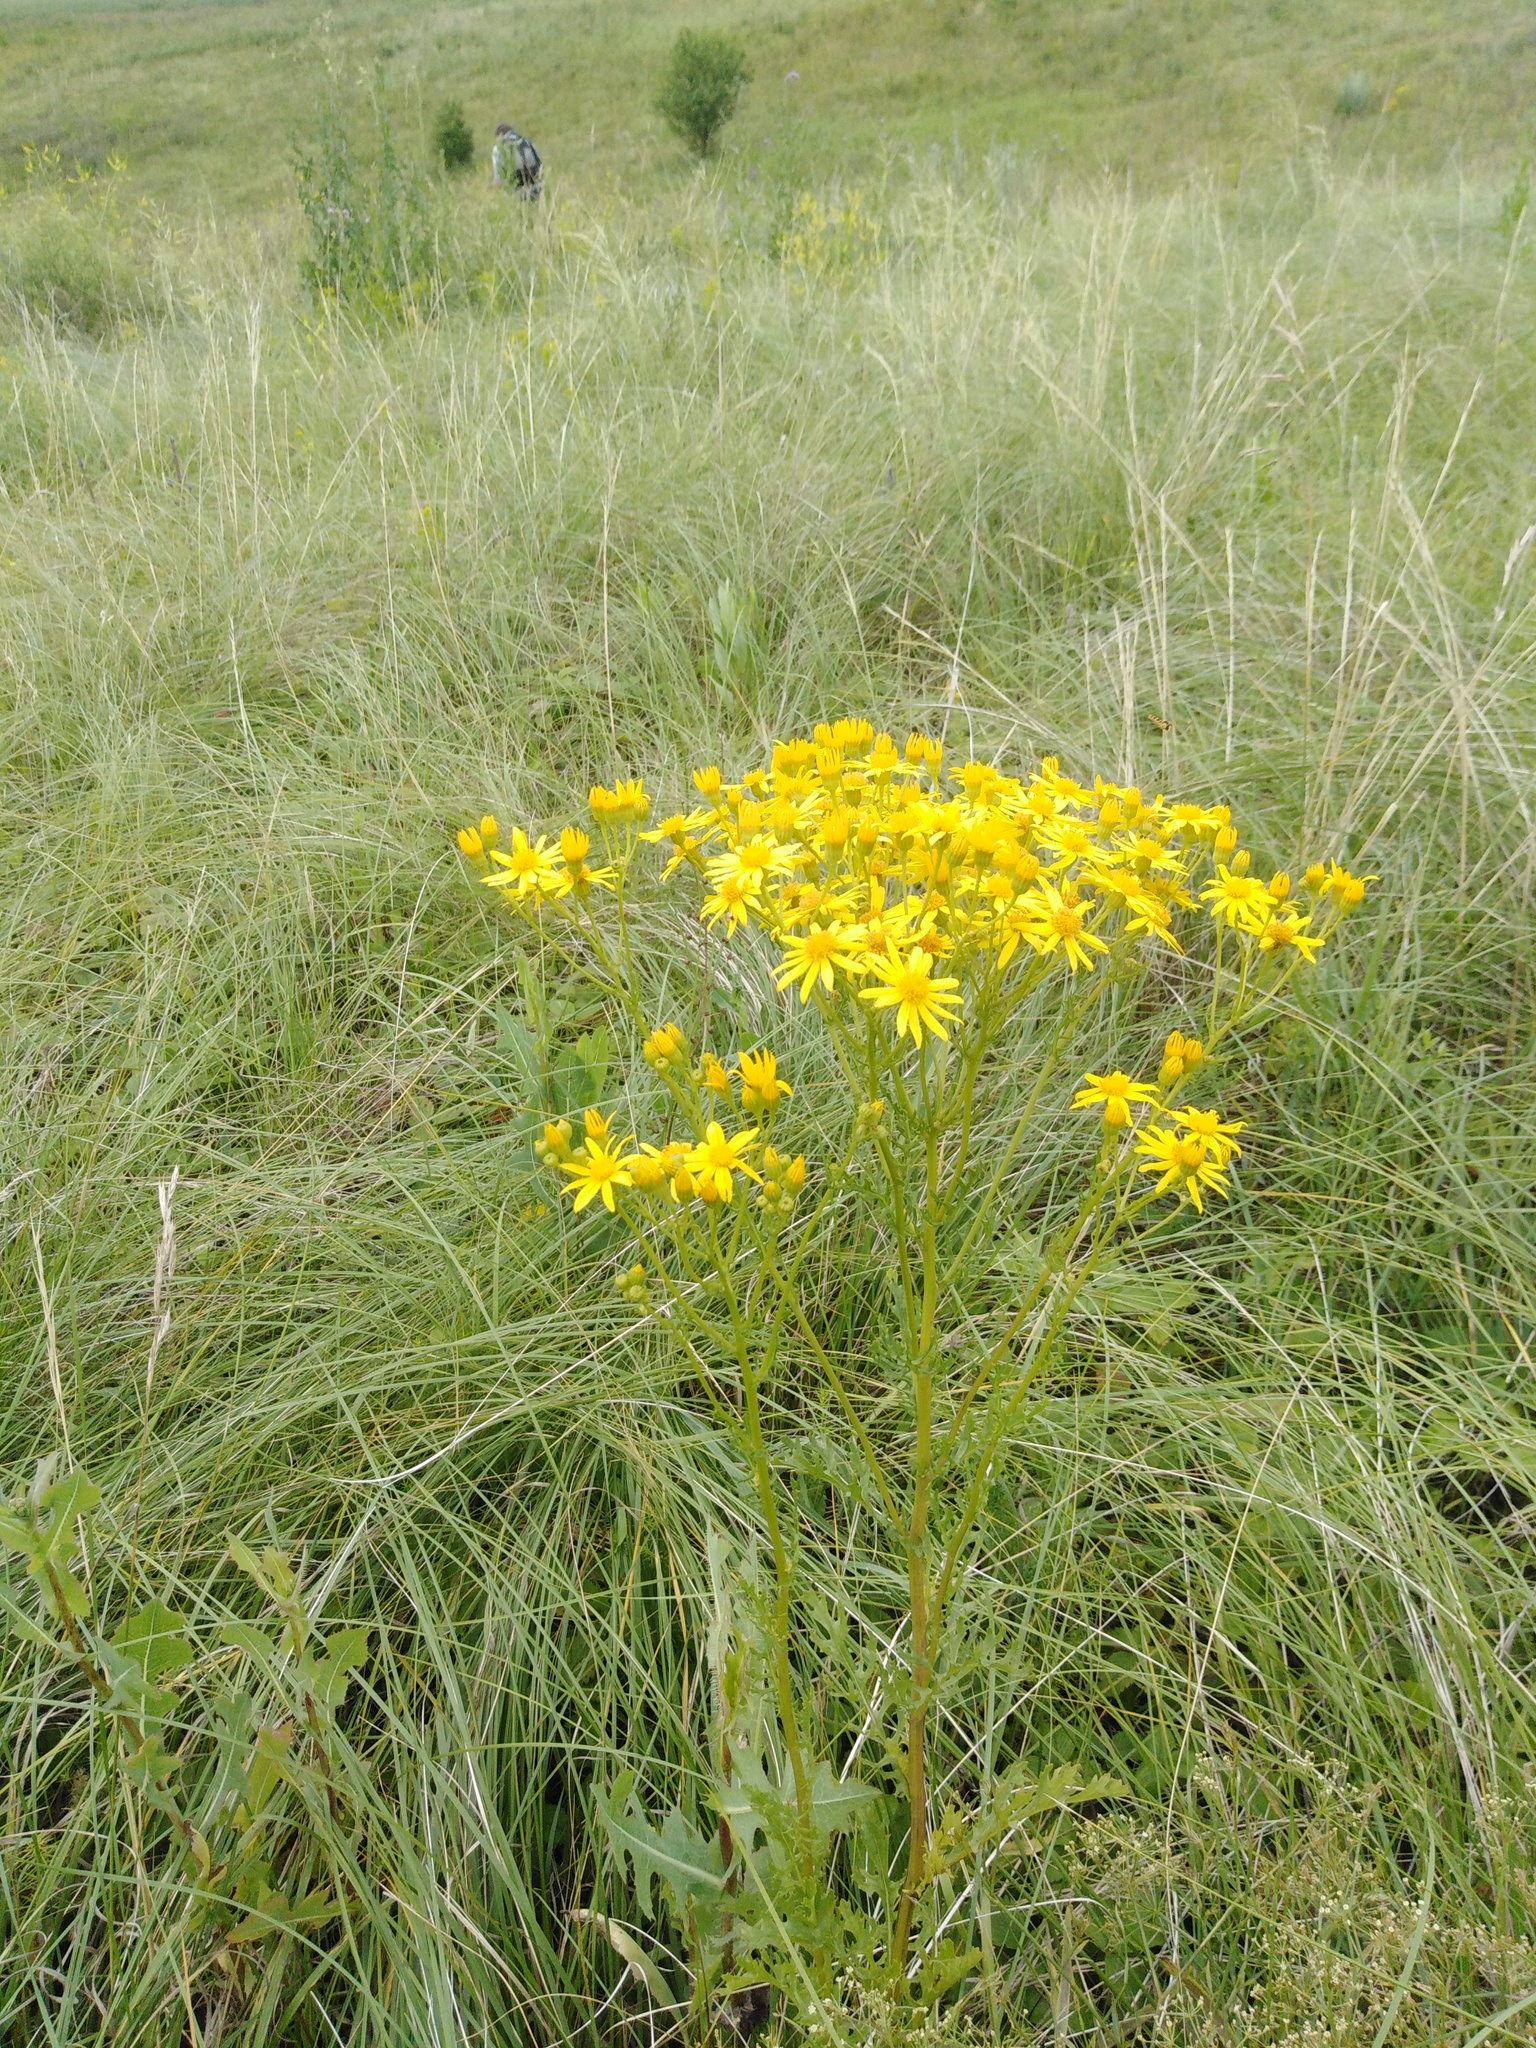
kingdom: Plantae
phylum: Tracheophyta
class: Magnoliopsida
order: Asterales
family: Asteraceae
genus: Jacobaea
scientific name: Jacobaea vulgaris
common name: Stinking willie
